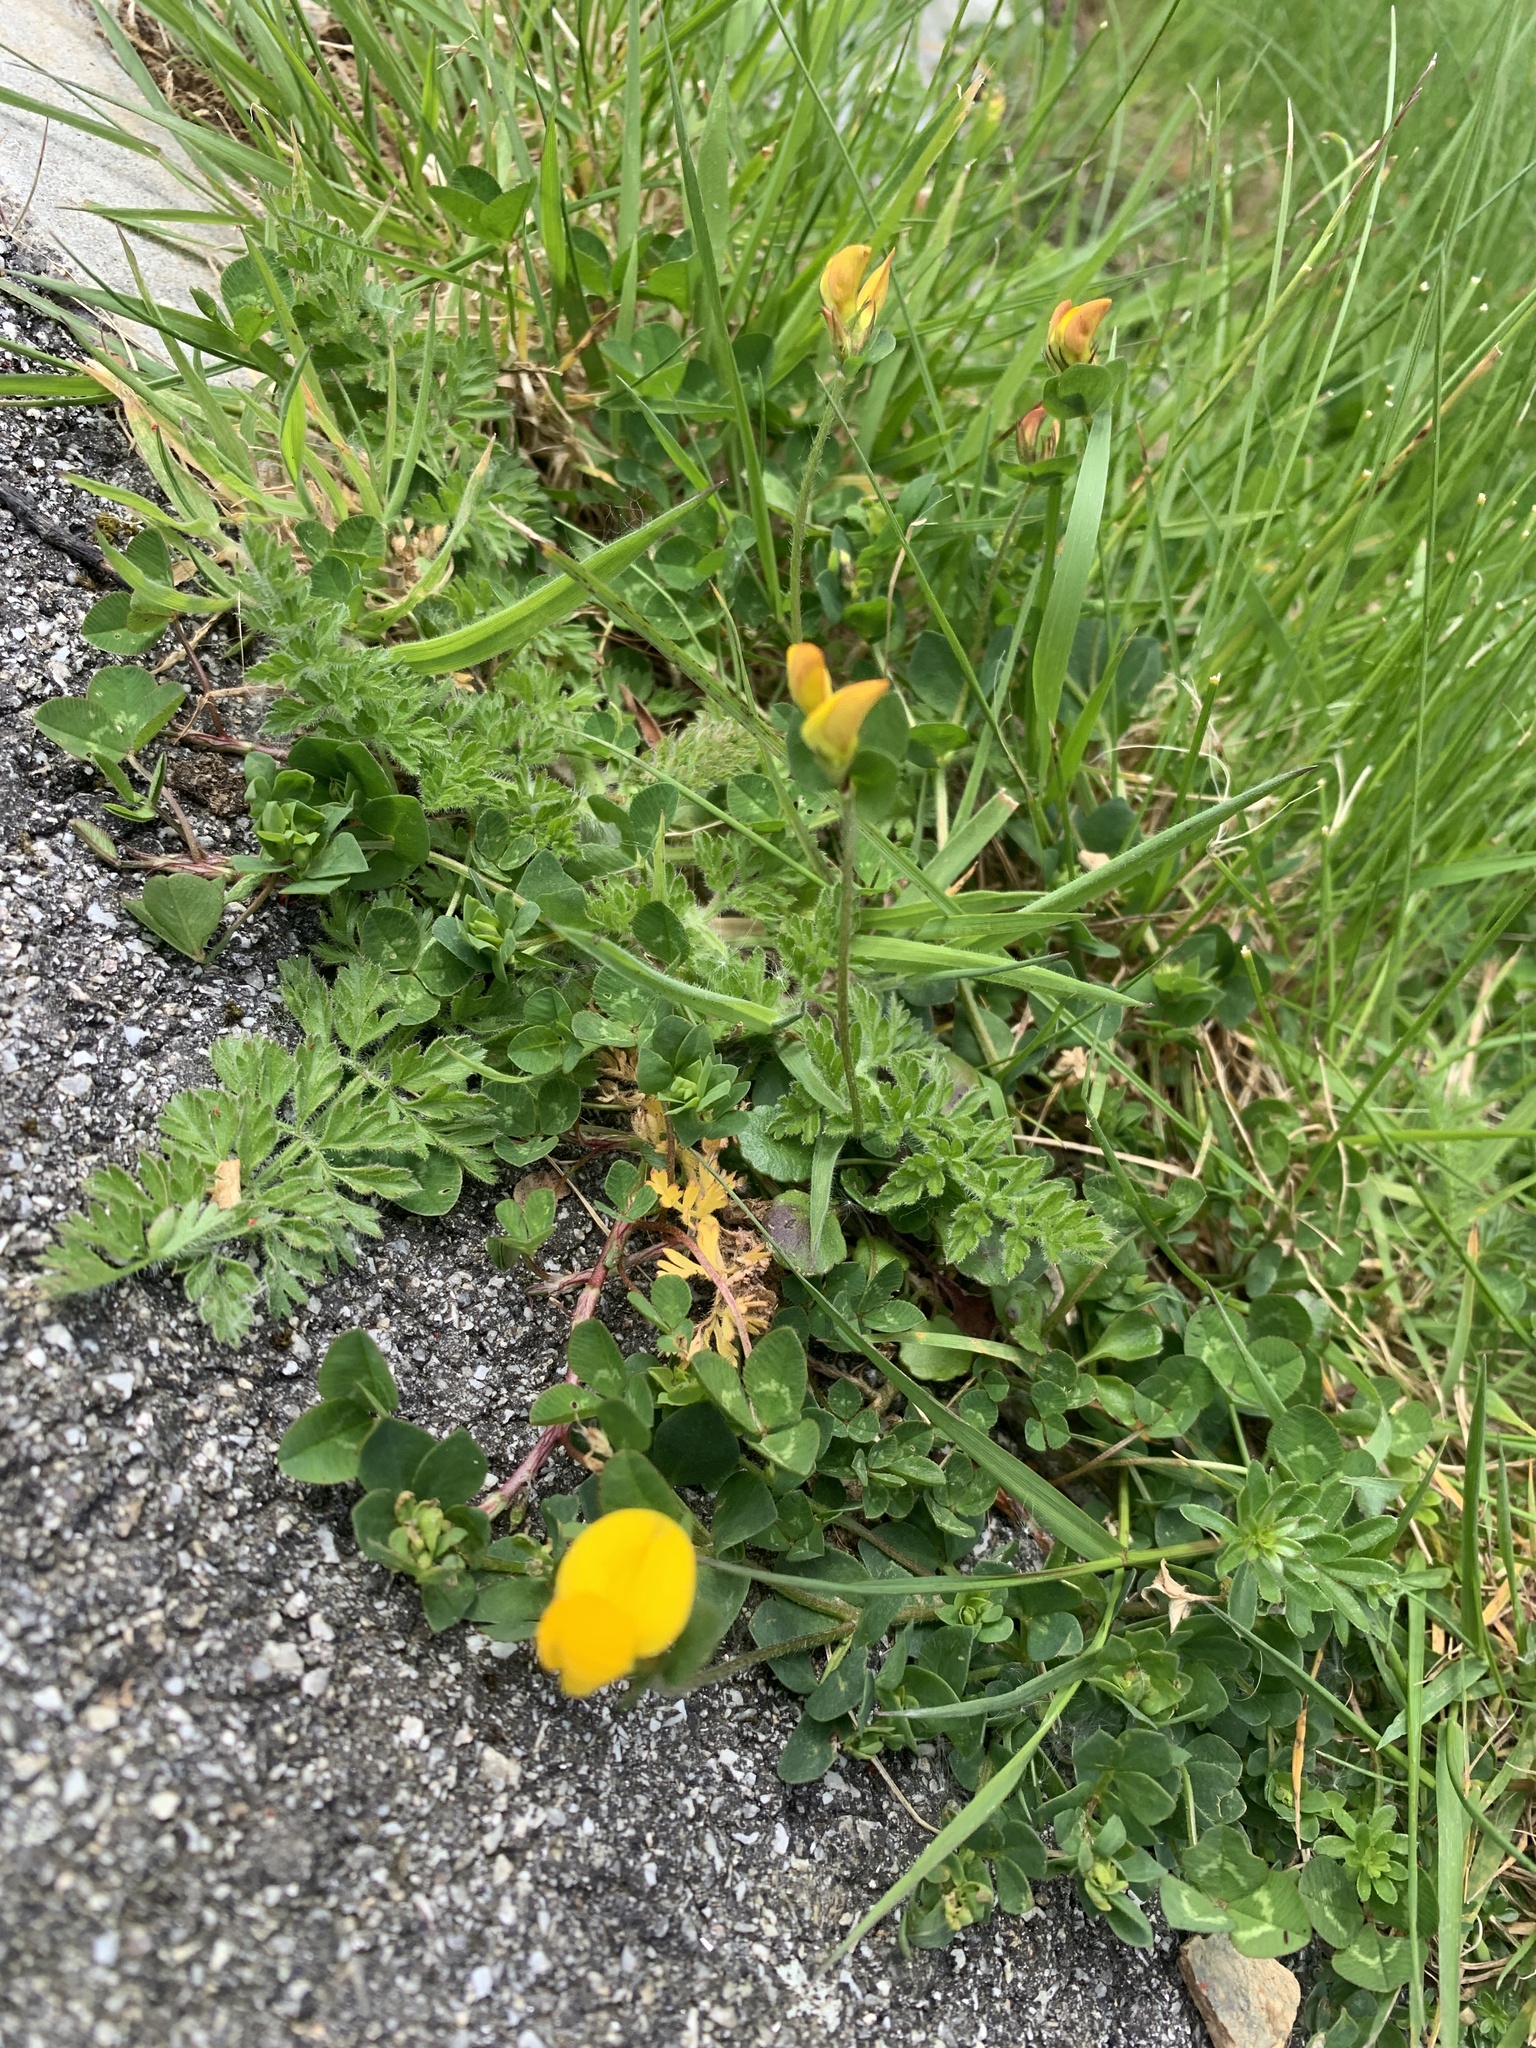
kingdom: Plantae
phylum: Tracheophyta
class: Magnoliopsida
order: Fabales
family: Fabaceae
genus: Lotus
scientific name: Lotus corniculatus
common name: Common bird's-foot-trefoil
